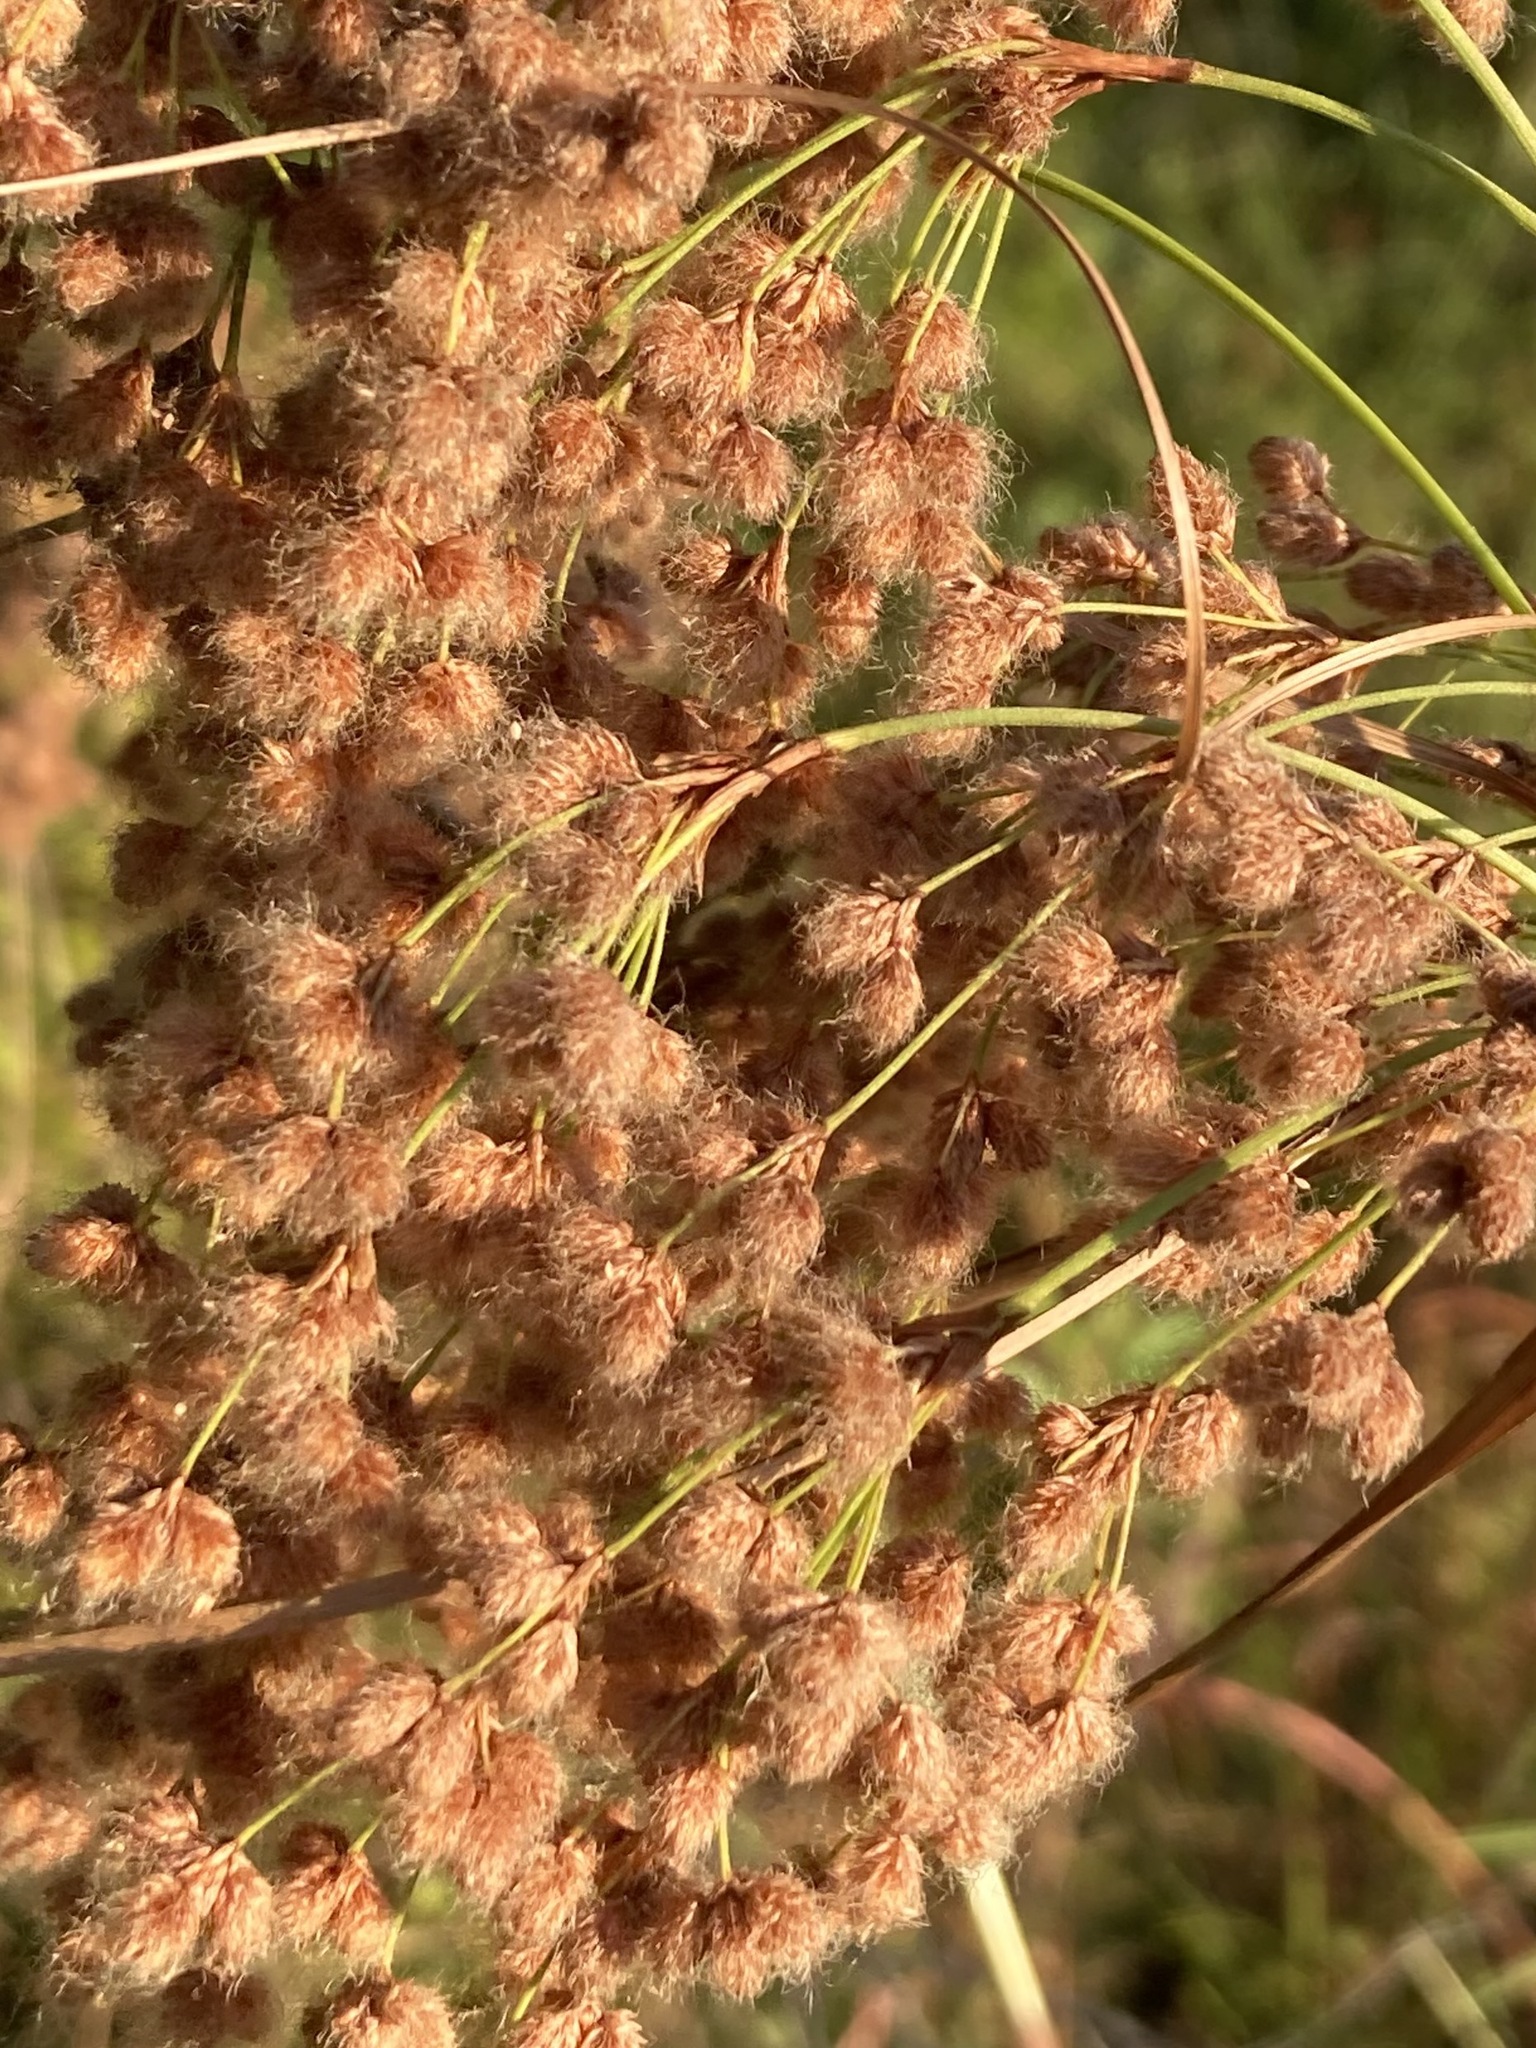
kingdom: Plantae
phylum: Tracheophyta
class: Liliopsida
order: Poales
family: Cyperaceae
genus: Scirpus
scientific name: Scirpus cyperinus
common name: Black-sheathed bulrush
